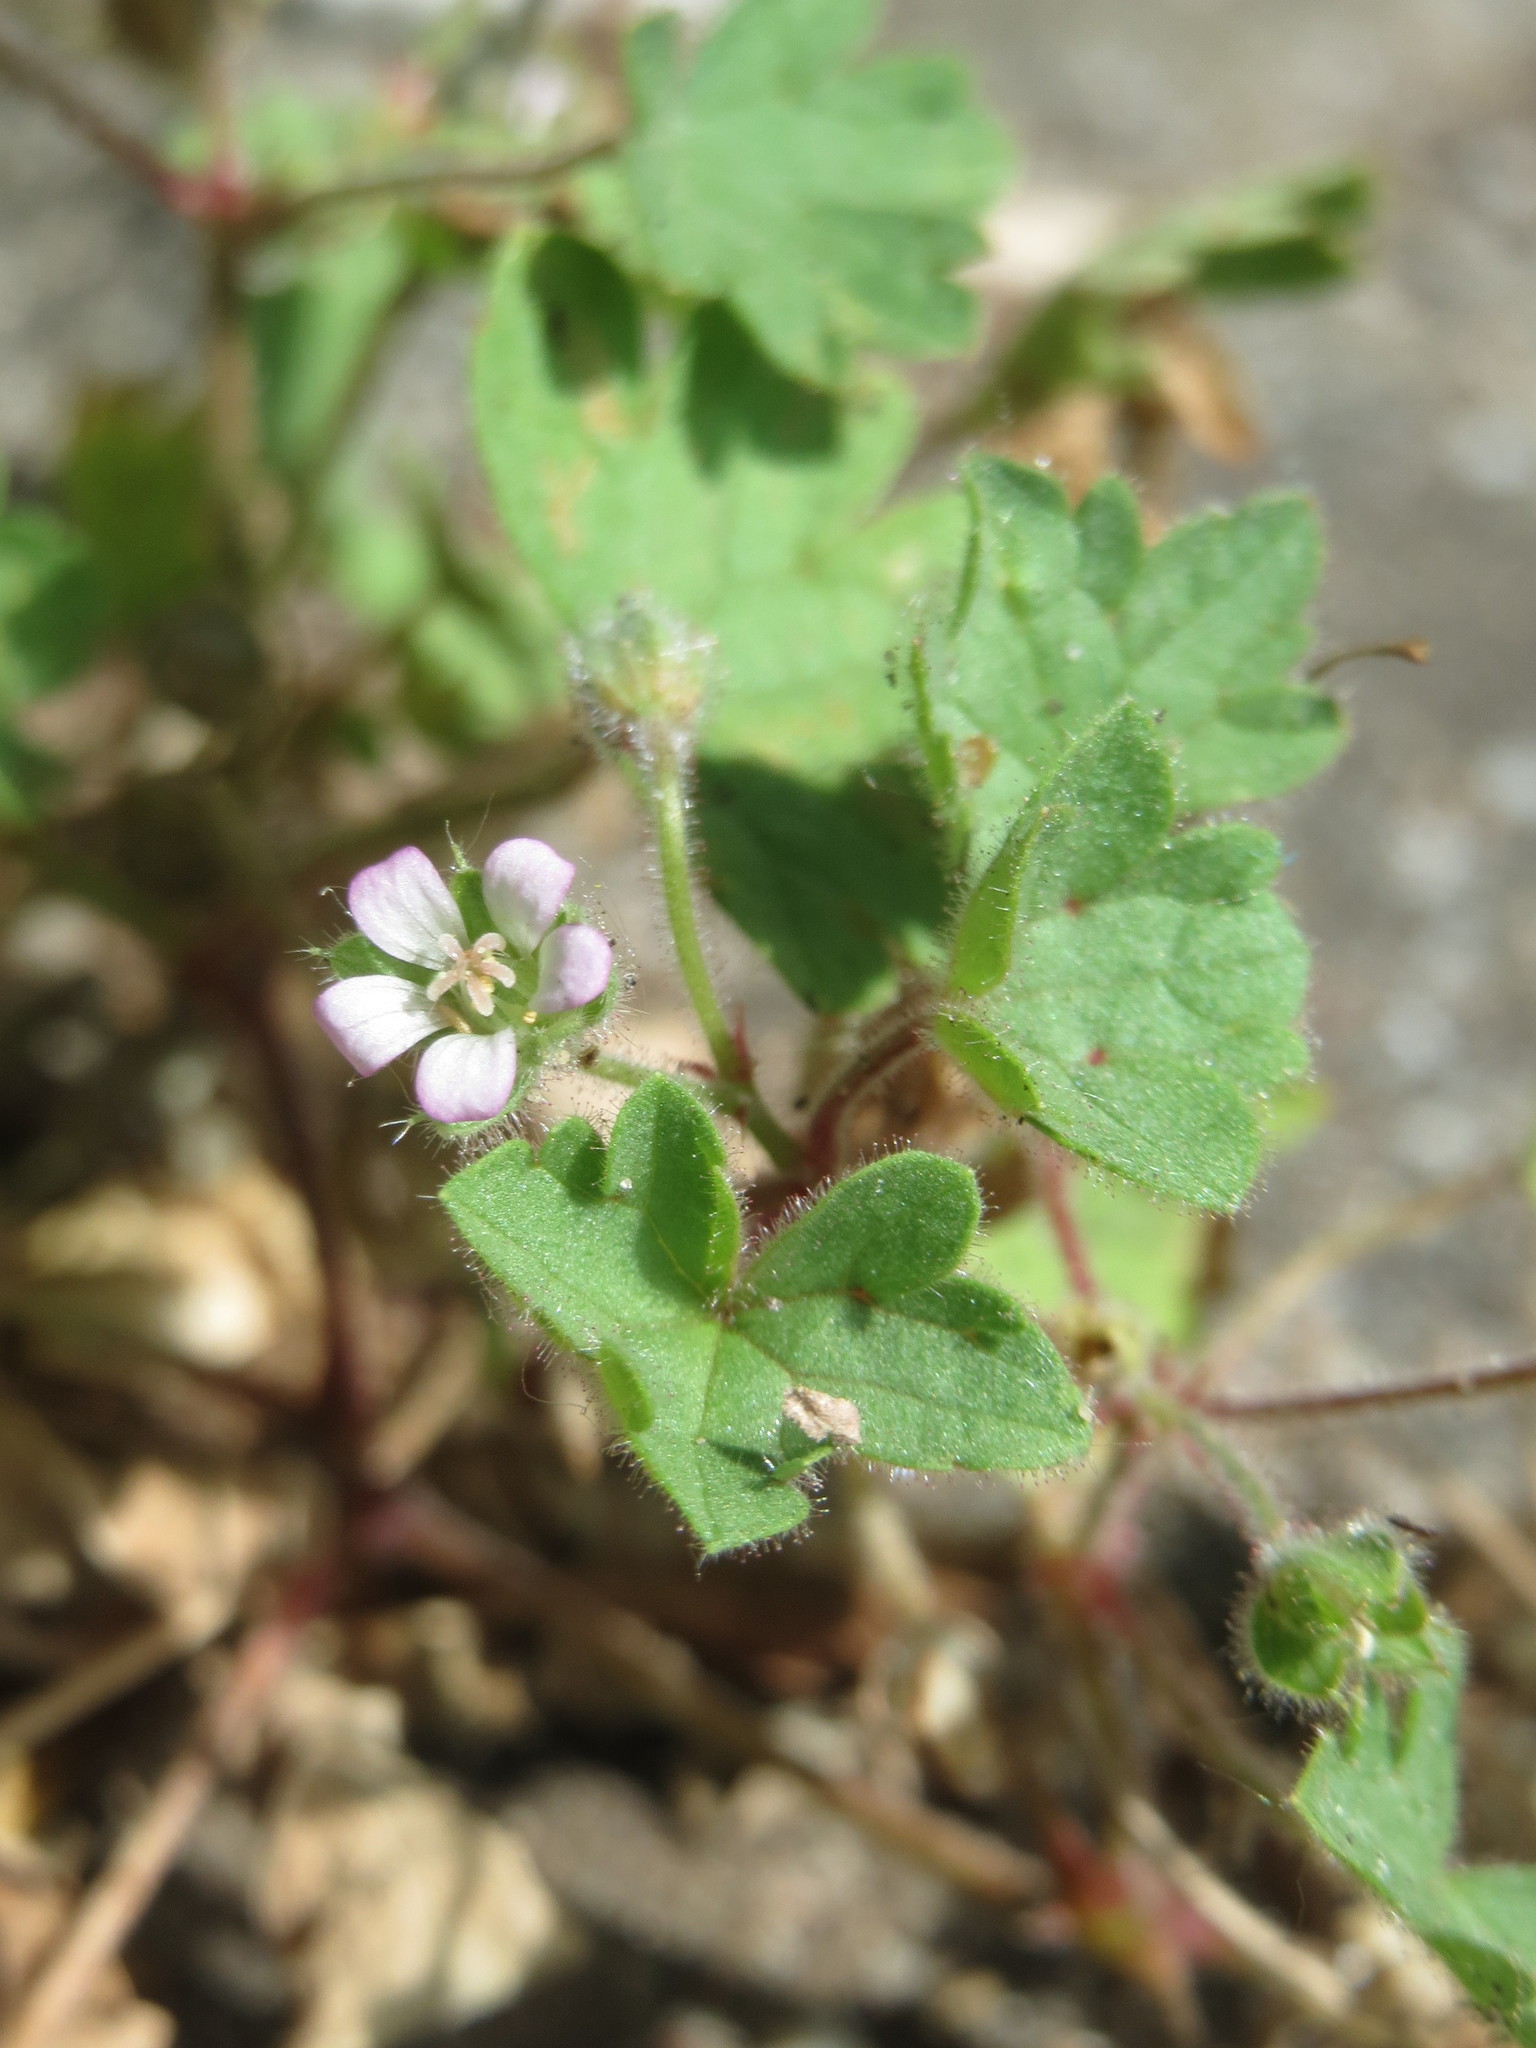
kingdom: Plantae
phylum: Tracheophyta
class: Magnoliopsida
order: Geraniales
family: Geraniaceae
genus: Geranium
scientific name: Geranium pusillum
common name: Small geranium
